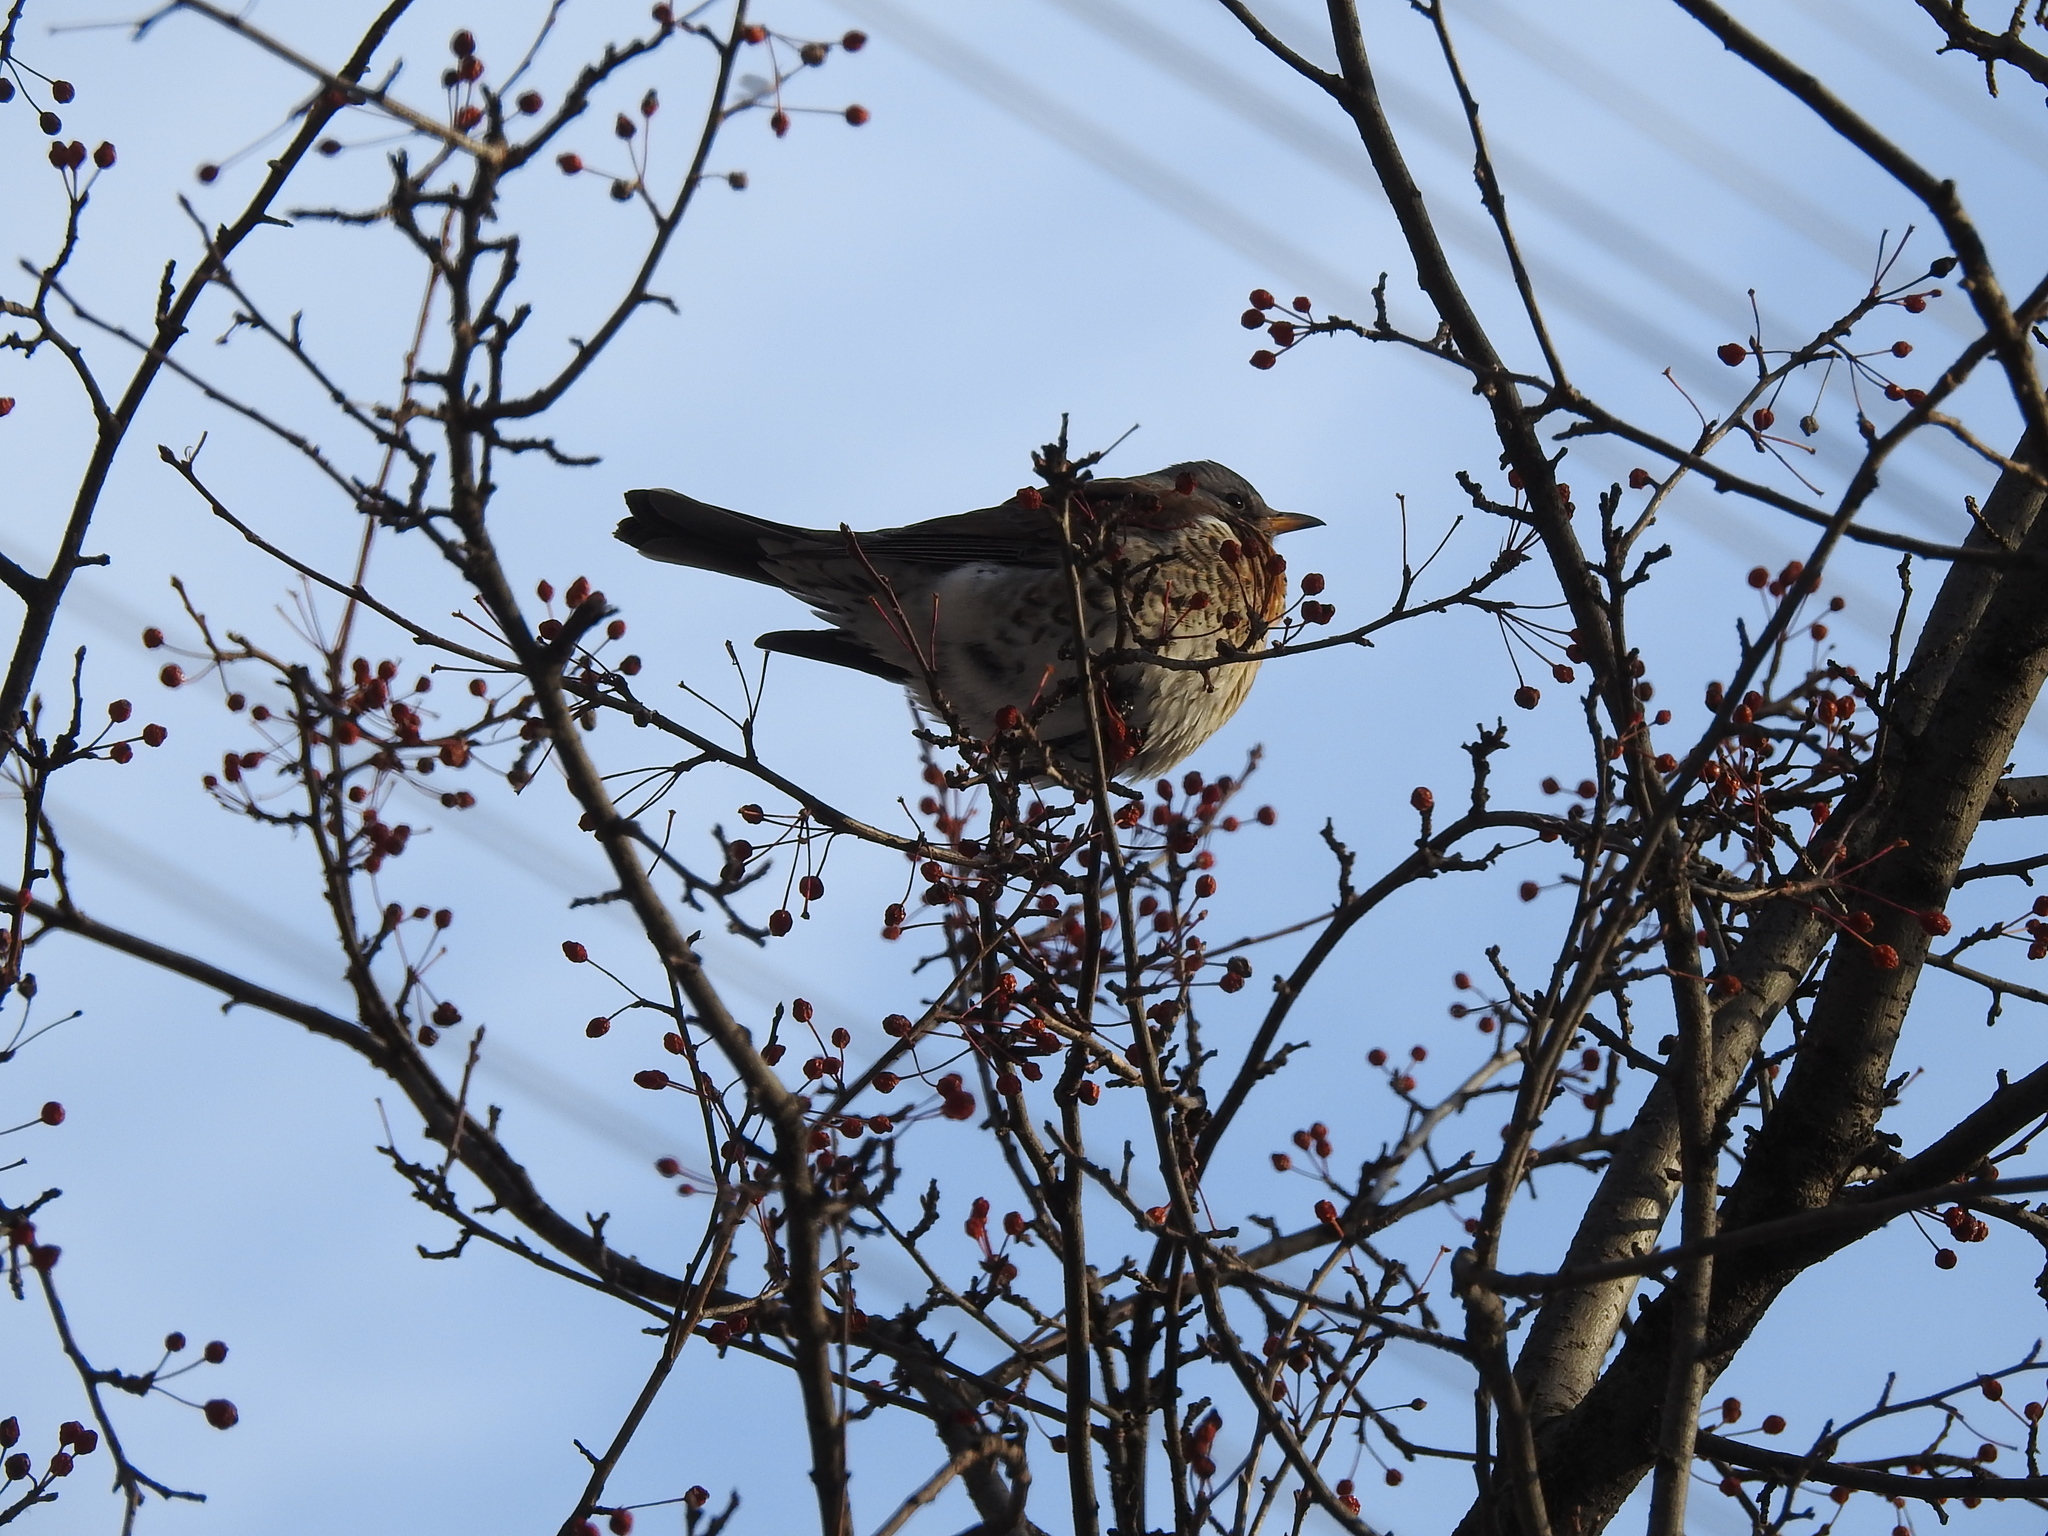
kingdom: Animalia
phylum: Chordata
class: Aves
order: Passeriformes
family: Turdidae
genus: Turdus
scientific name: Turdus pilaris
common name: Fieldfare
